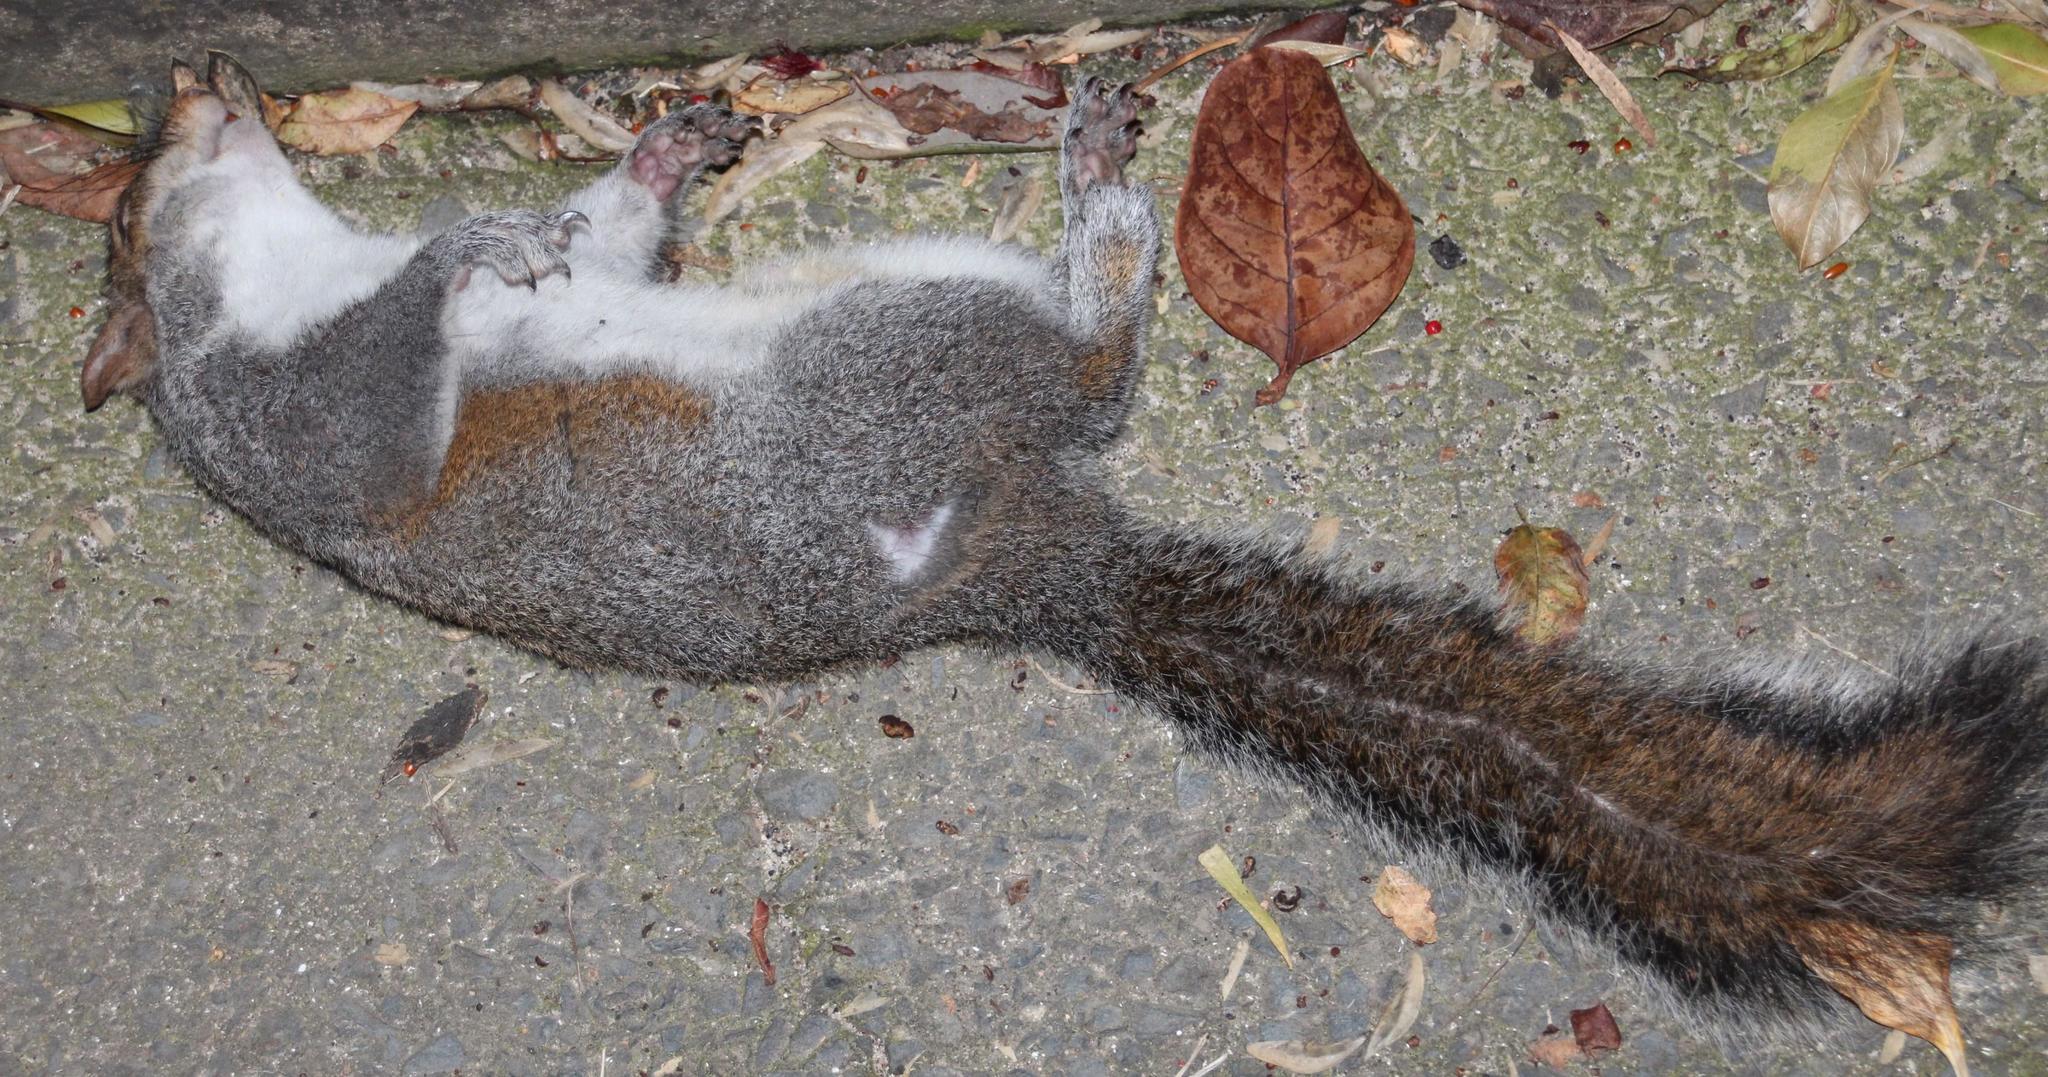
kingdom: Animalia
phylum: Chordata
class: Mammalia
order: Rodentia
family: Sciuridae
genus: Sciurus
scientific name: Sciurus carolinensis
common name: Eastern gray squirrel
